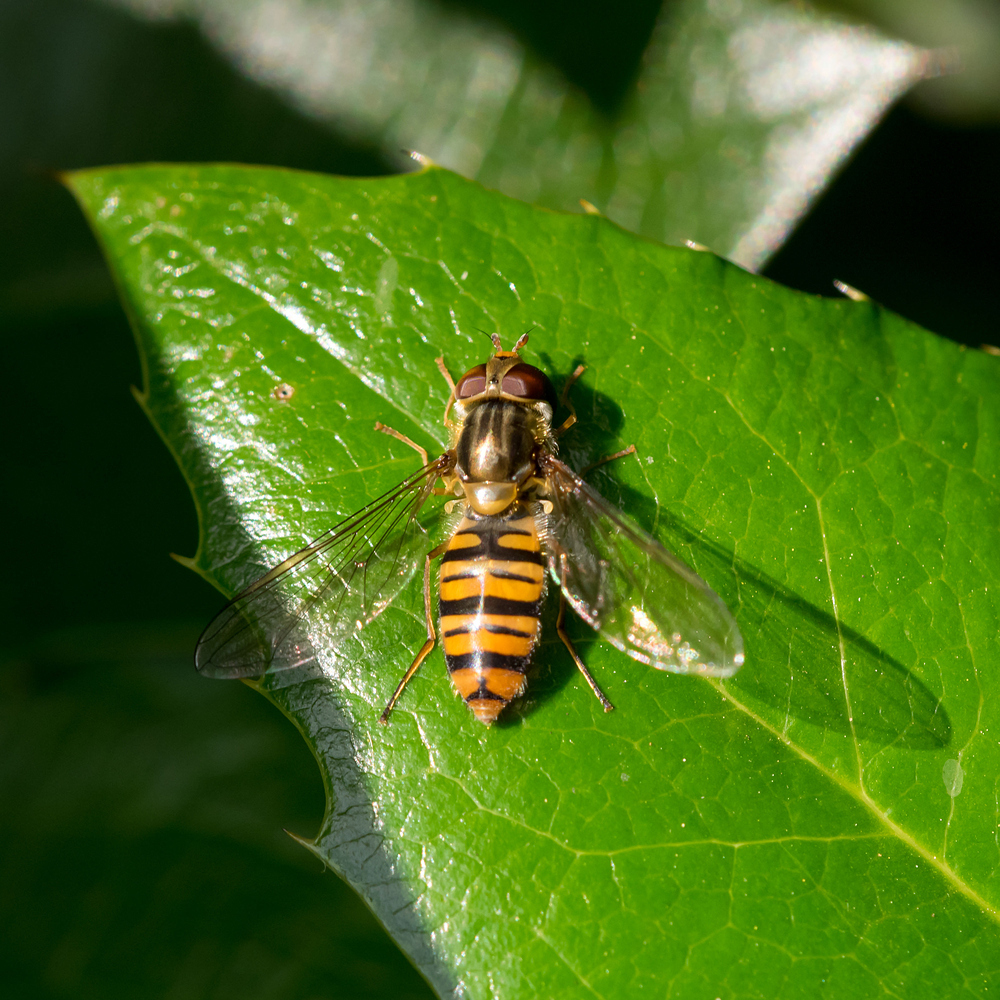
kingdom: Animalia
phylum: Arthropoda
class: Insecta
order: Diptera
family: Syrphidae
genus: Episyrphus
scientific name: Episyrphus balteatus
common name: Marmalade hoverfly
